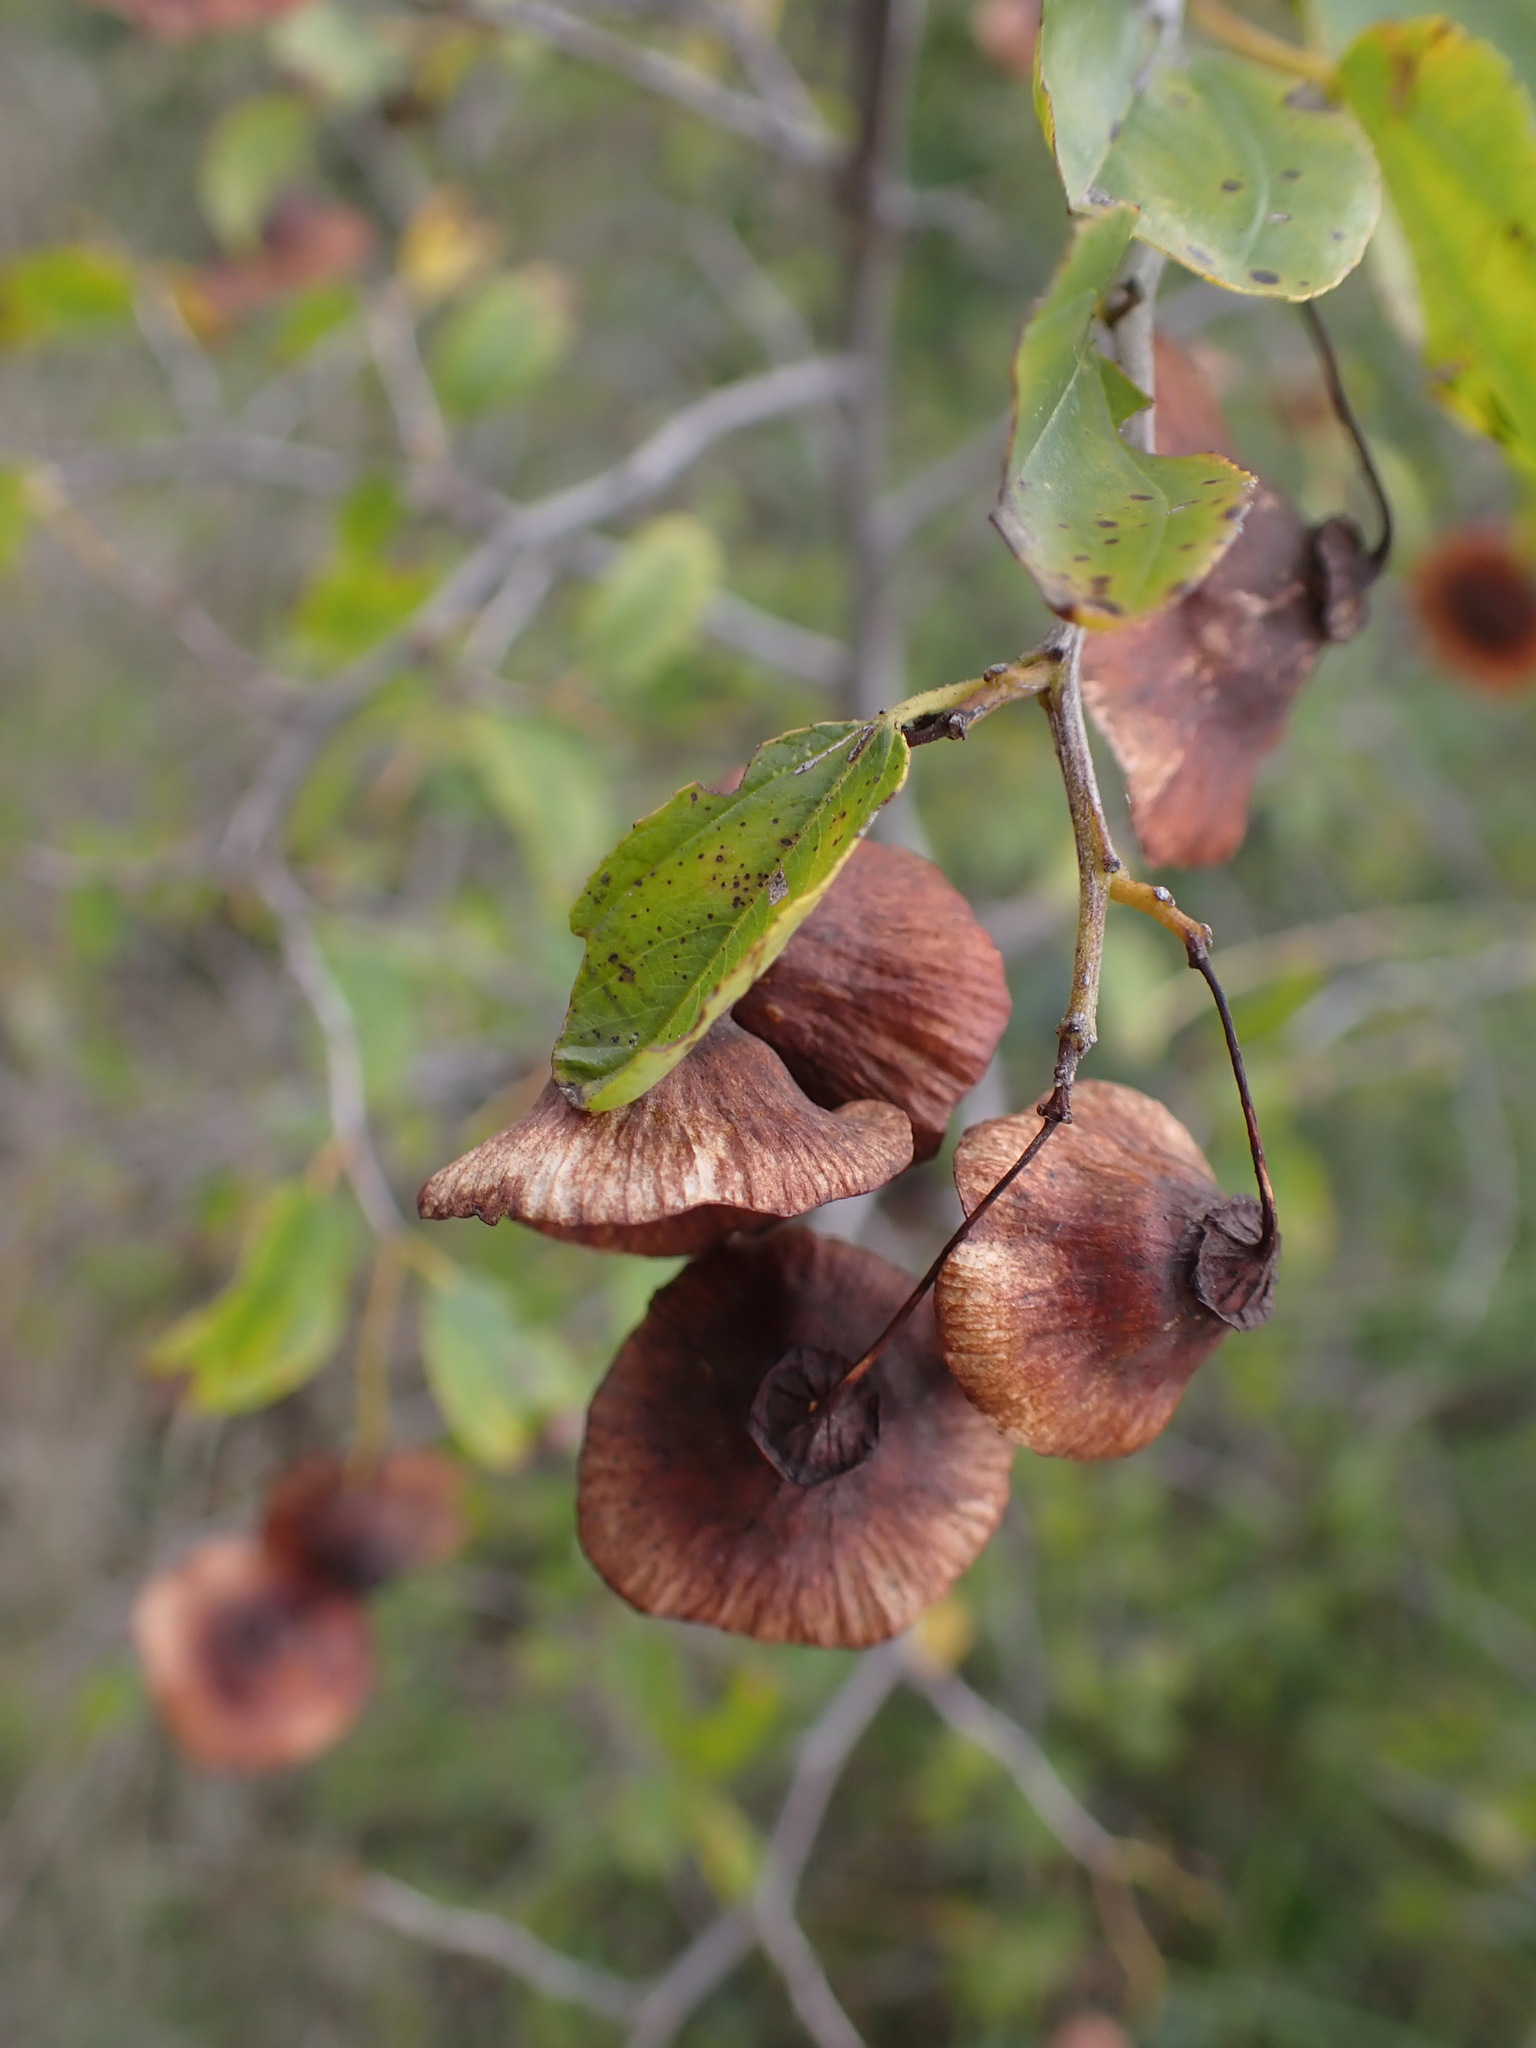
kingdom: Plantae
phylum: Tracheophyta
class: Magnoliopsida
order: Rosales
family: Rhamnaceae
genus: Paliurus
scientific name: Paliurus spina-christi
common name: Jeruselem thorn
